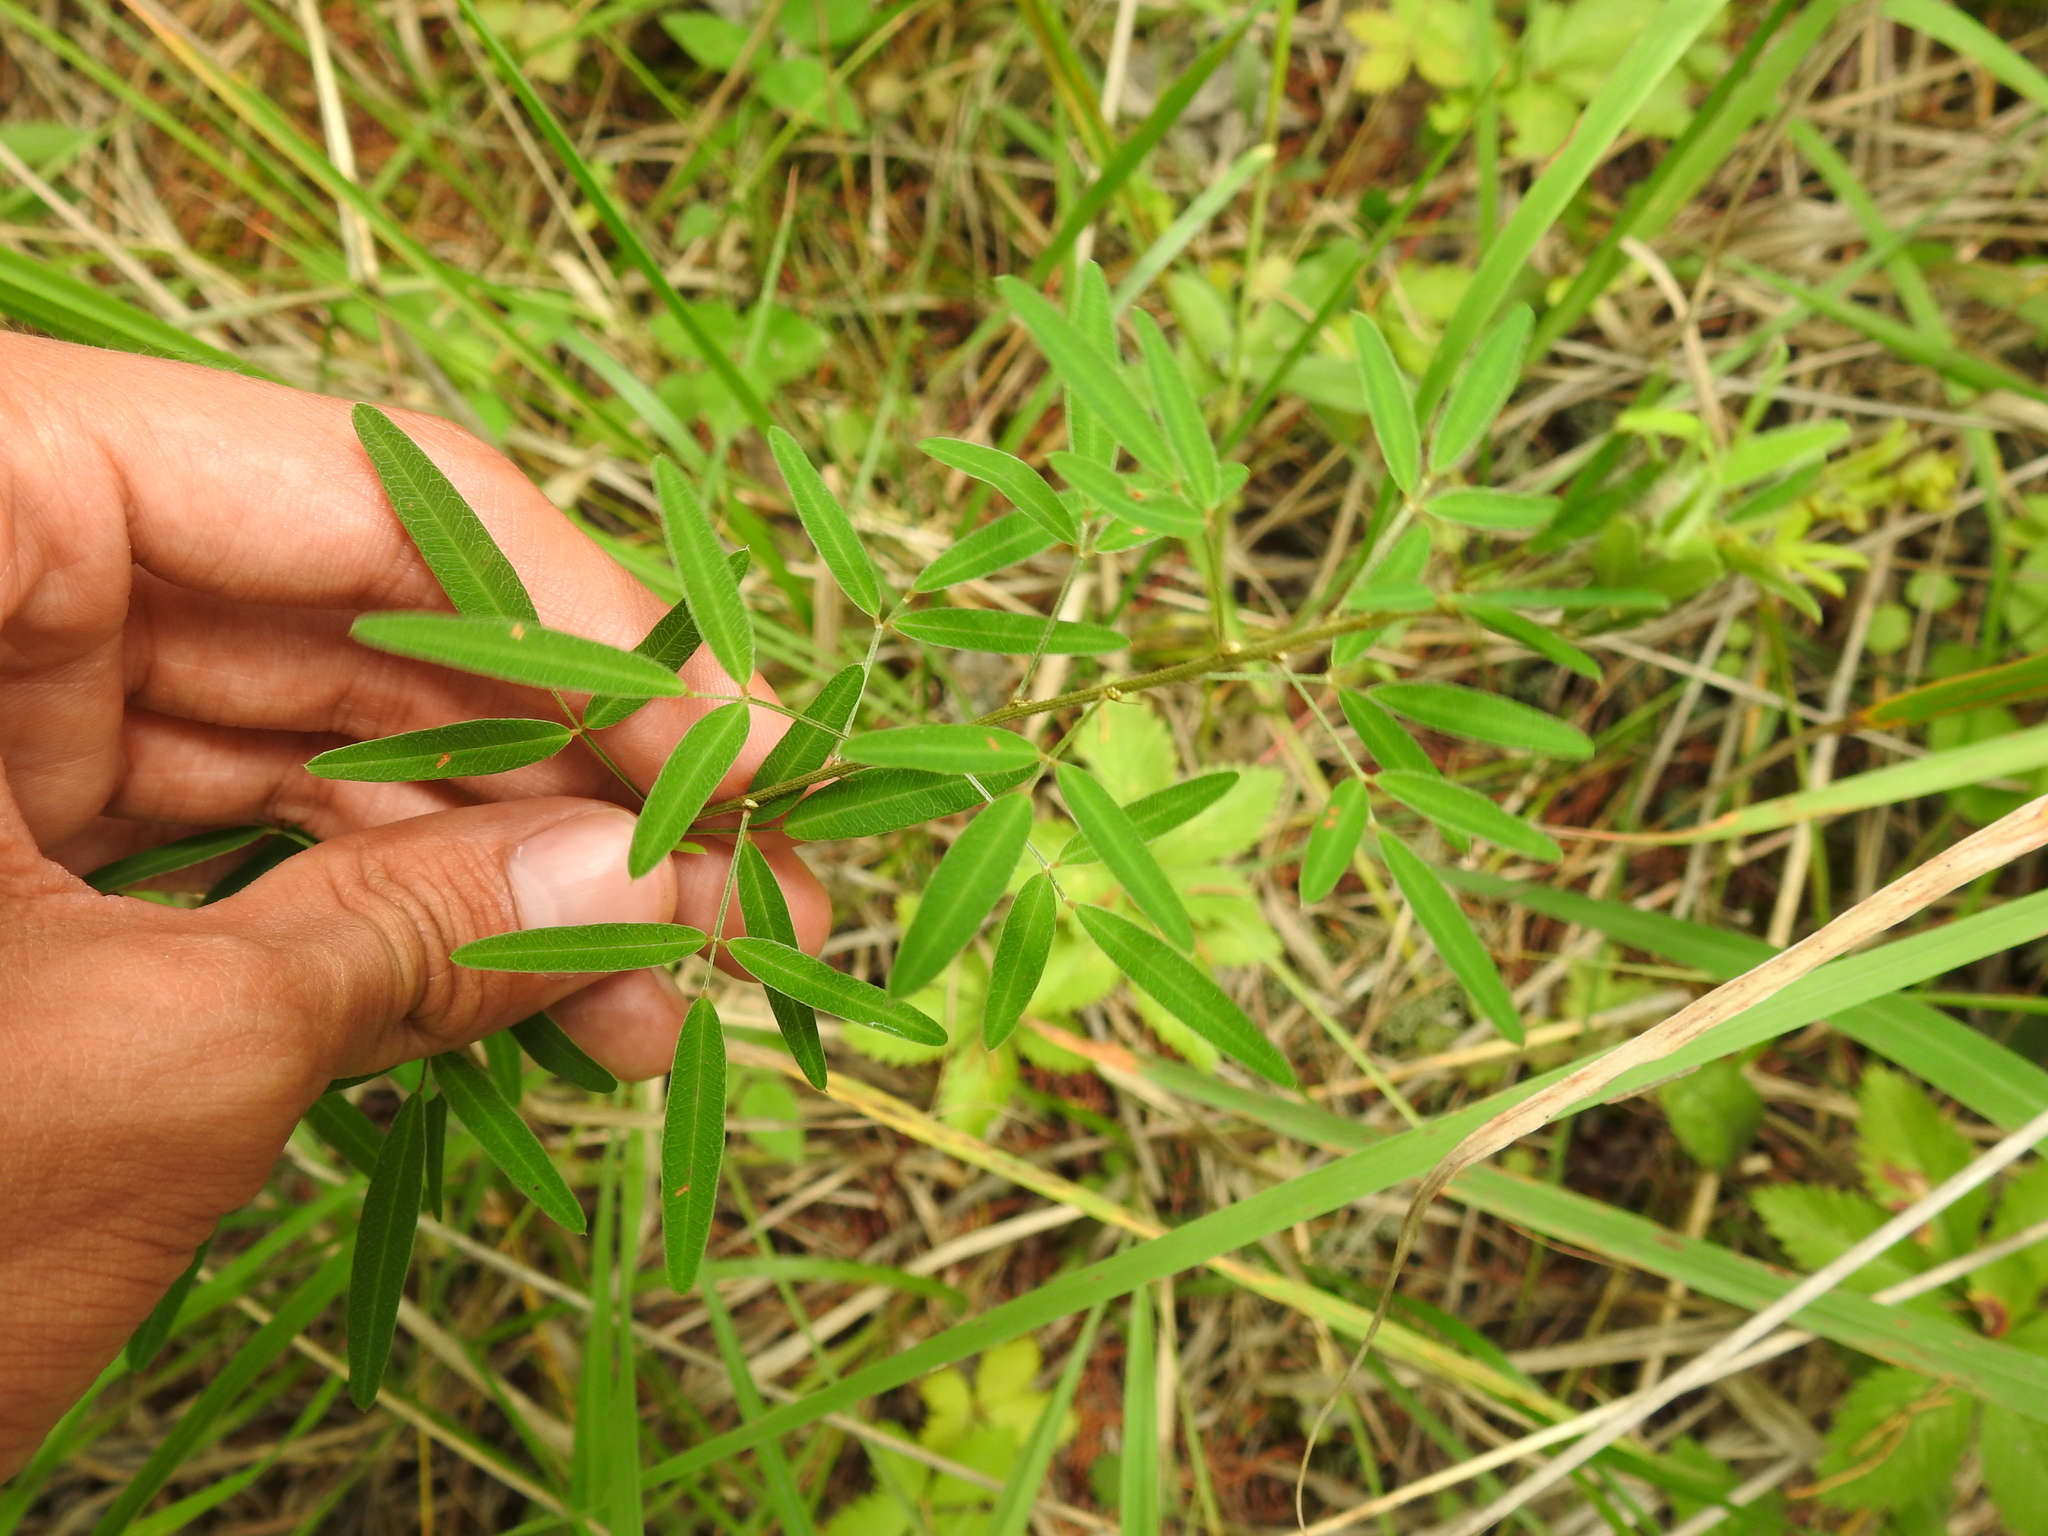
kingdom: Plantae
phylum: Tracheophyta
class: Magnoliopsida
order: Fabales
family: Fabaceae
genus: Lespedeza
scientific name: Lespedeza virginica
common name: Slender bush-clover
